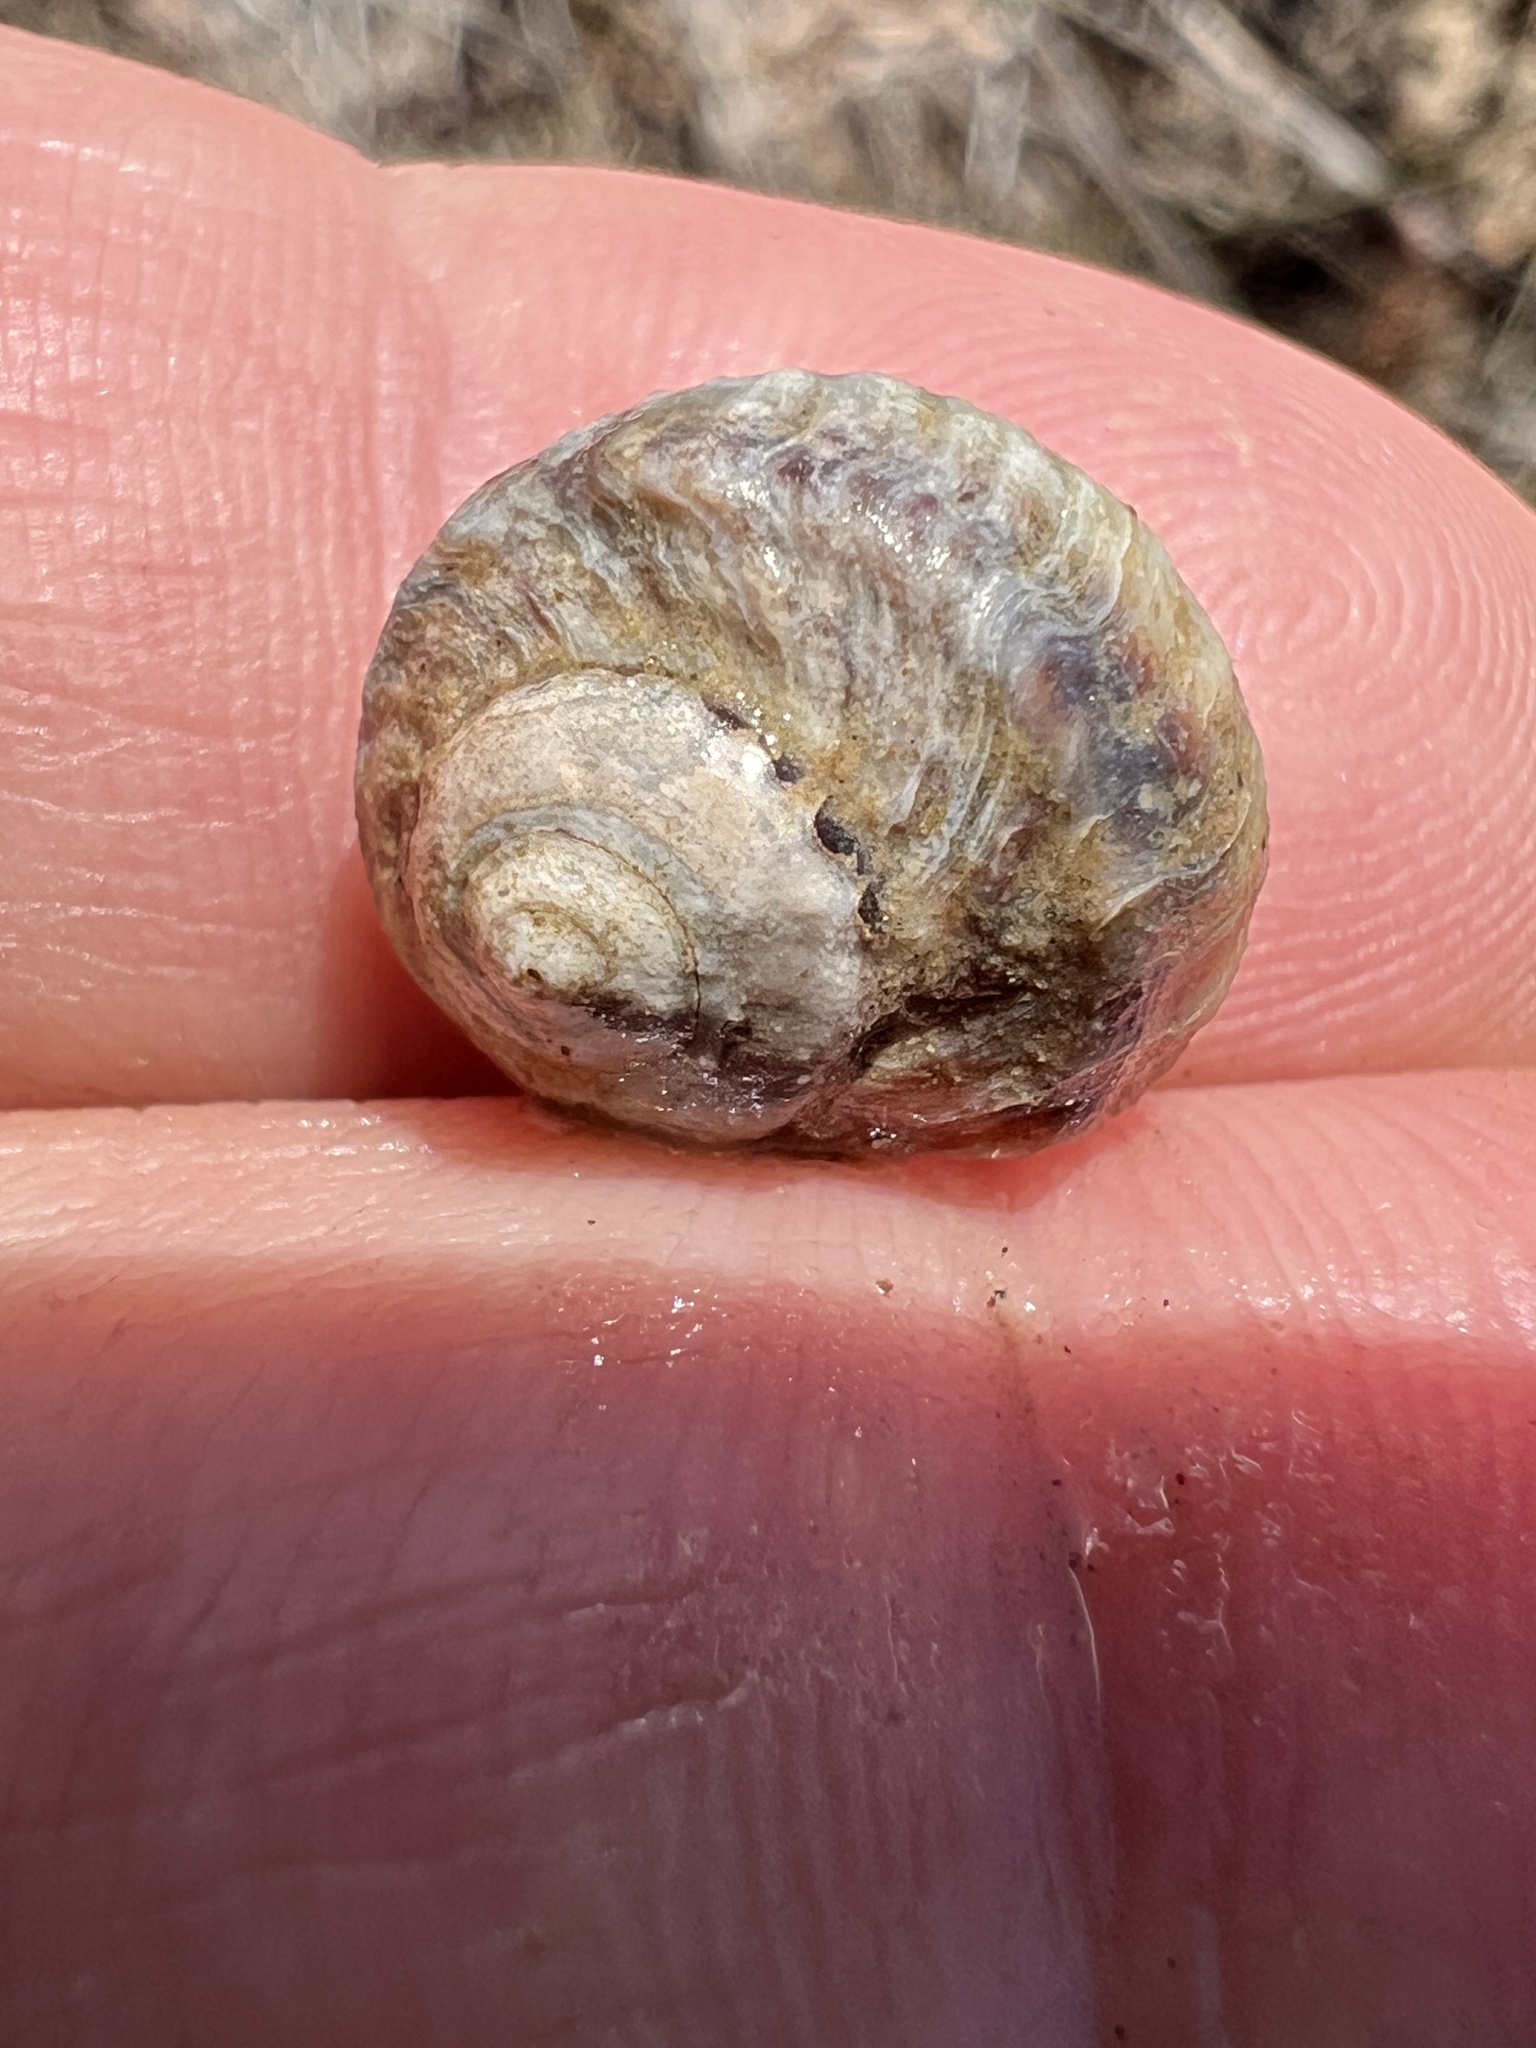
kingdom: Animalia
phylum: Mollusca
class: Gastropoda
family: Amphibolidae
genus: Amphibola
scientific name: Amphibola crenata
